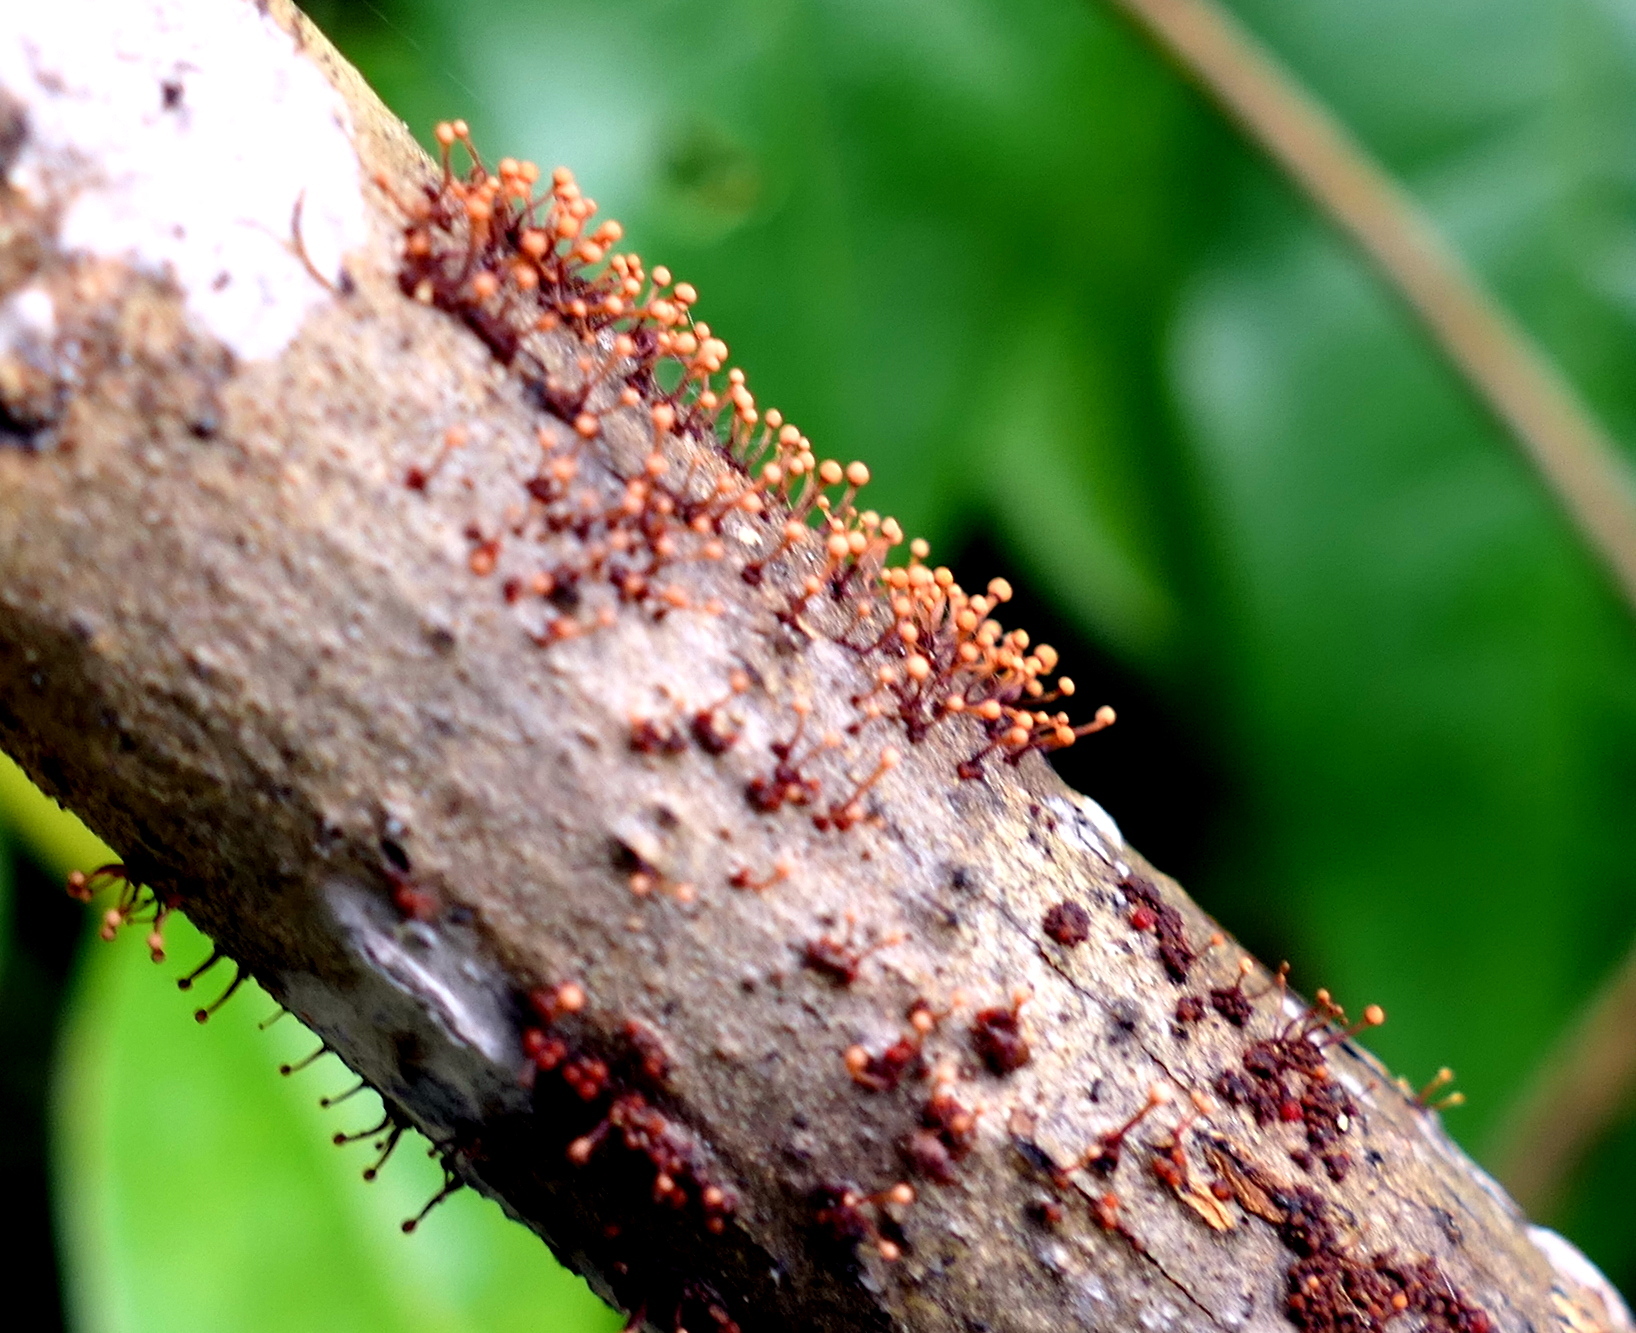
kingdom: Fungi
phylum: Ascomycota
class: Sordariomycetes
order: Hypocreales
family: Nectriaceae
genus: Nectria
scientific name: Nectria pseudotrichia
